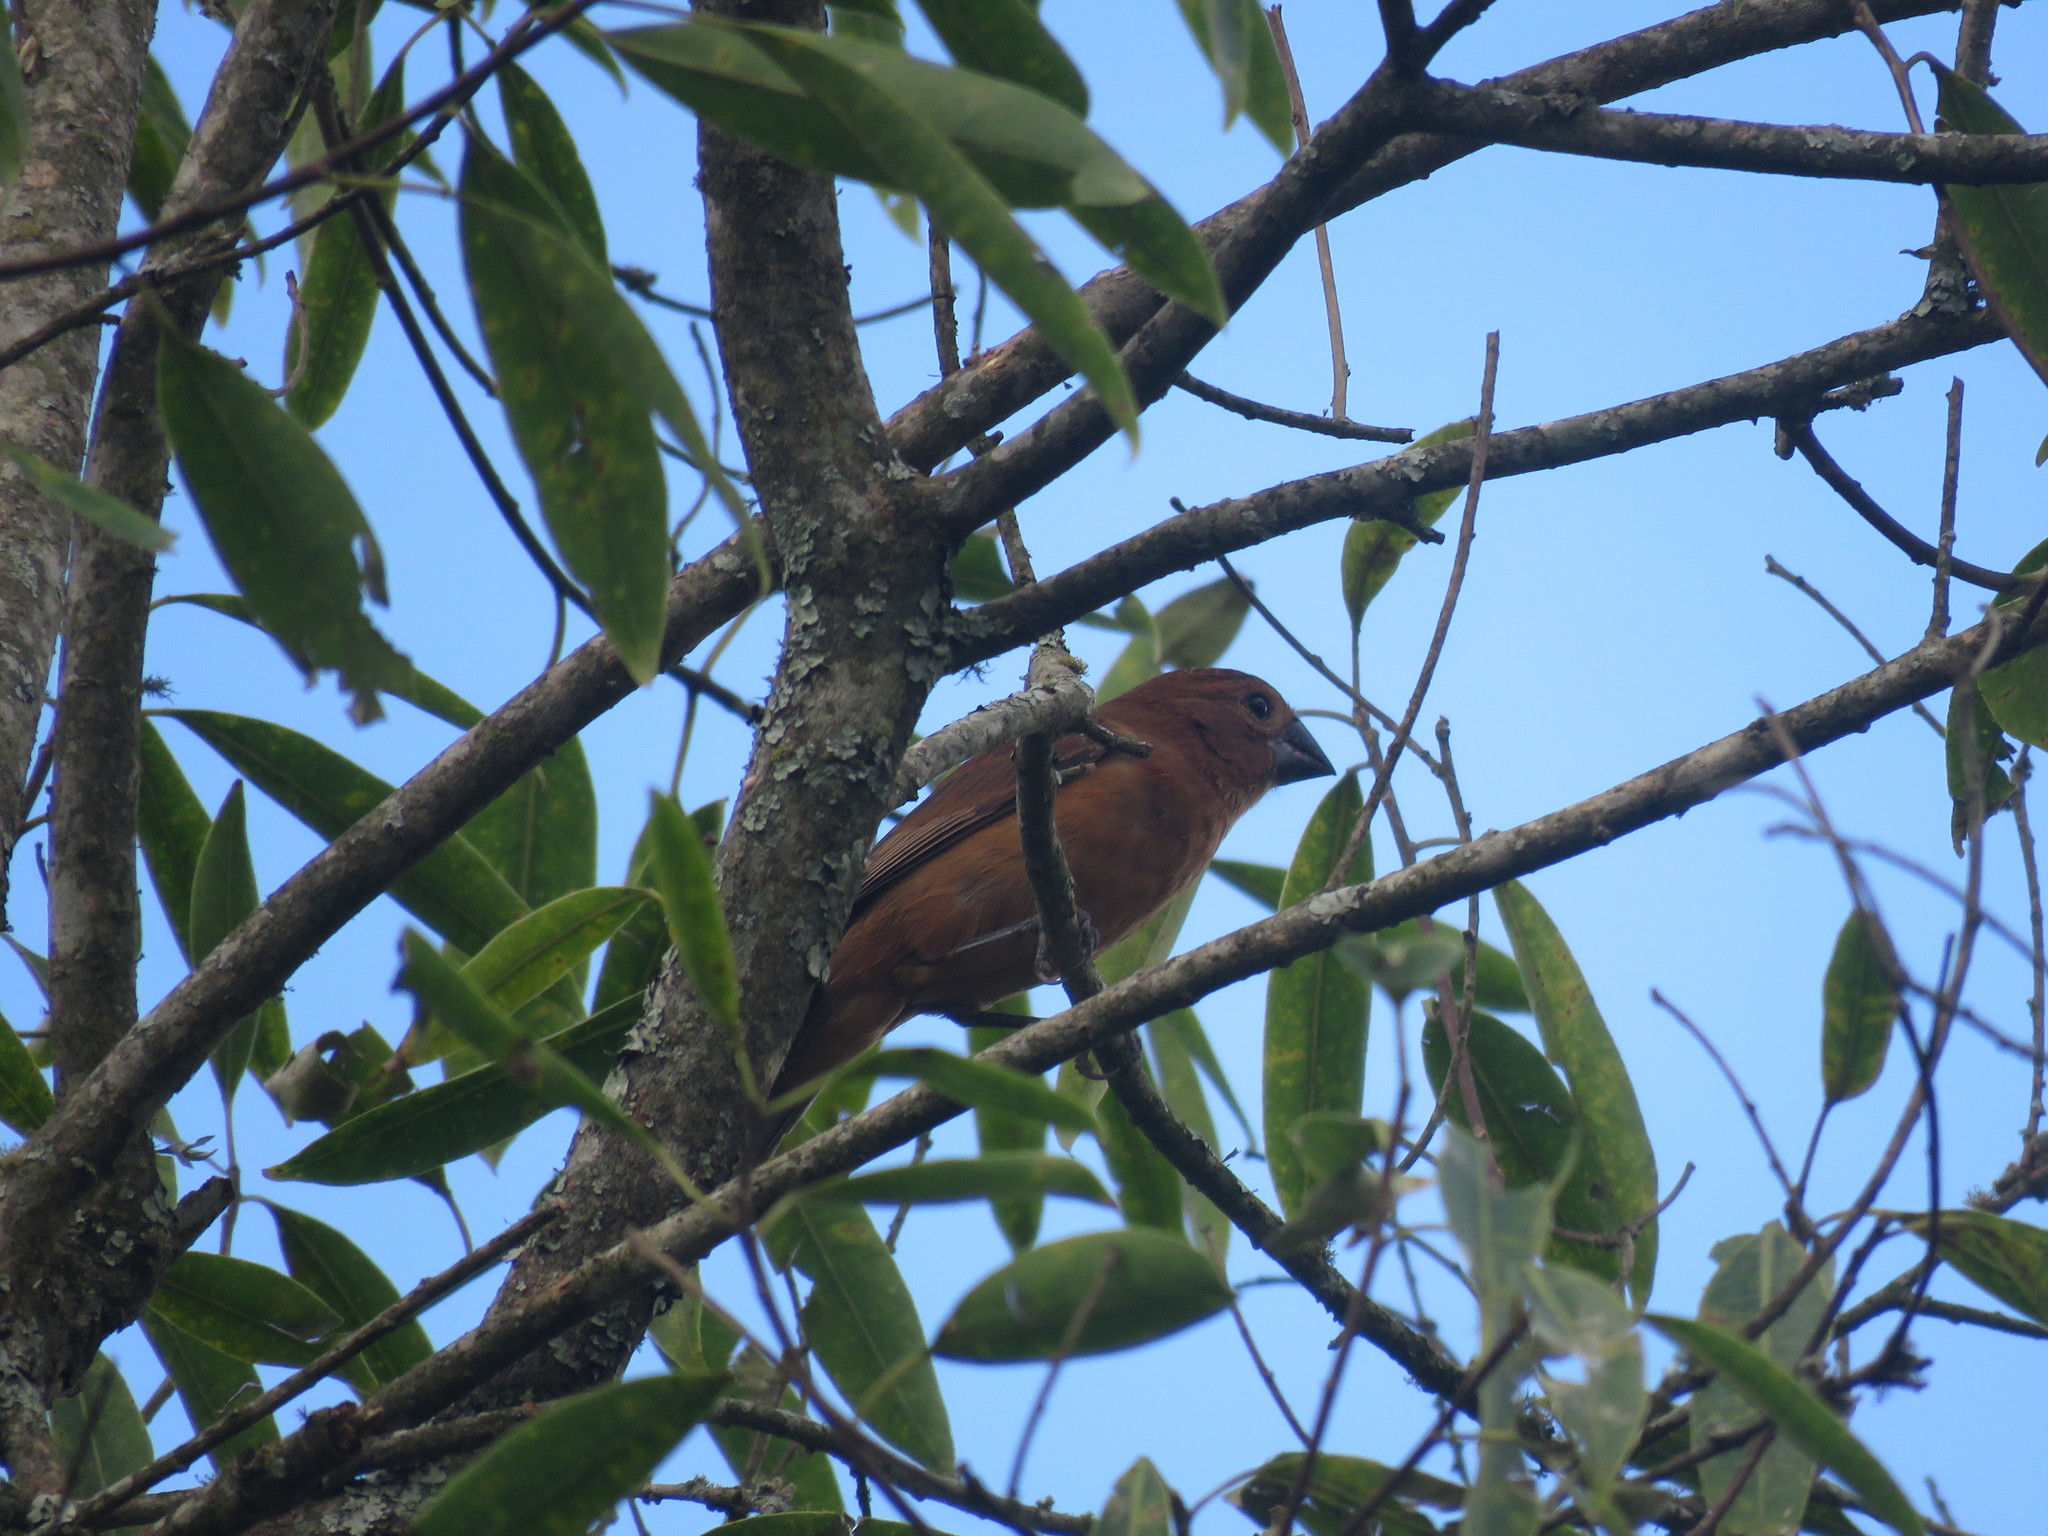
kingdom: Animalia
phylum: Chordata
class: Aves
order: Passeriformes
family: Cardinalidae
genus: Cyanoloxia
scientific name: Cyanoloxia brissonii
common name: Ultramarine grosbeak
